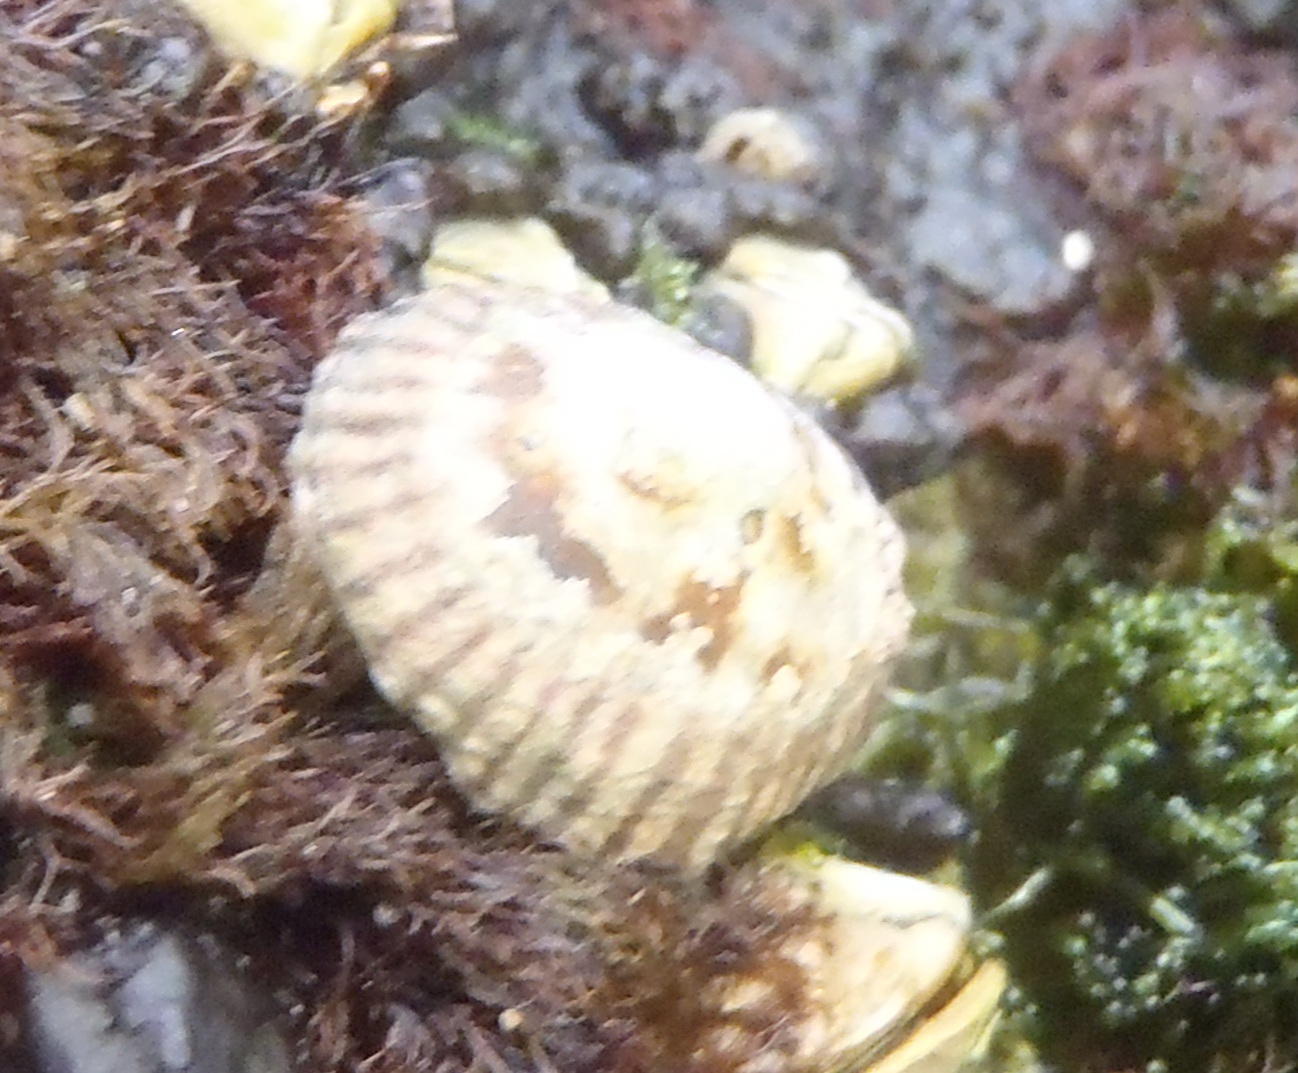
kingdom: Animalia
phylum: Mollusca
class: Gastropoda
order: Siphonariida
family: Siphonariidae
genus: Siphonaria
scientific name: Siphonaria capensis
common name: Cape false limpet
